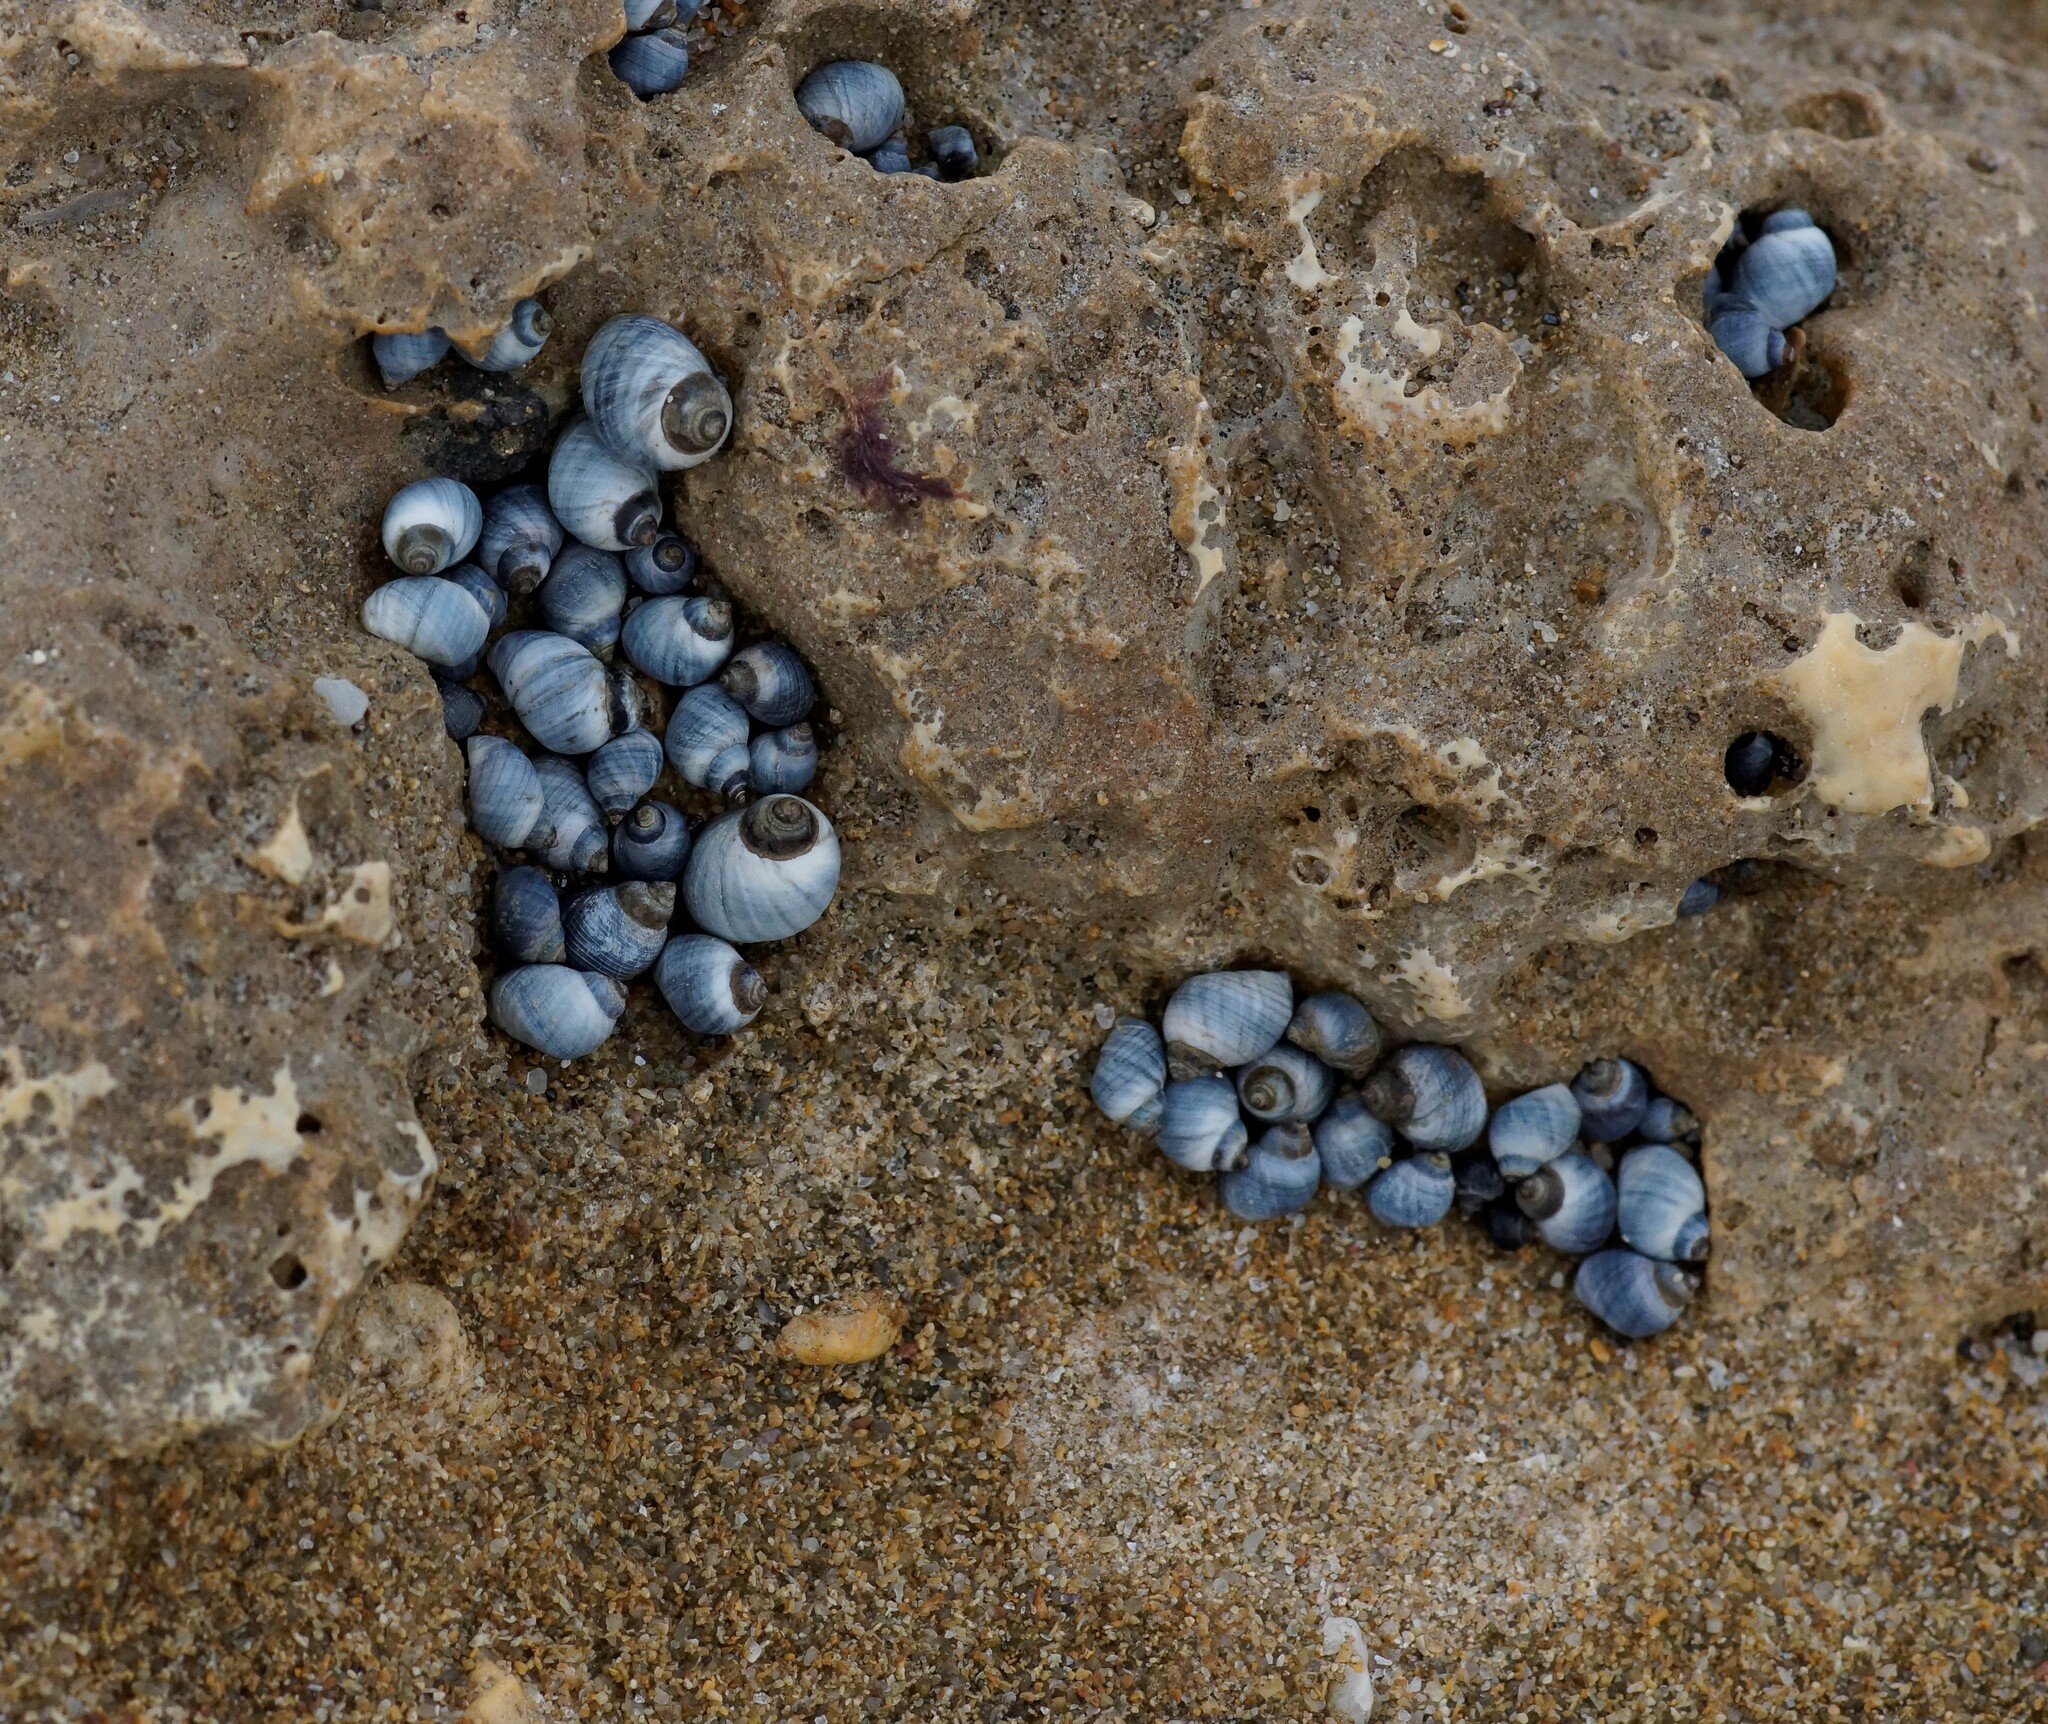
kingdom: Animalia
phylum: Mollusca
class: Gastropoda
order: Littorinimorpha
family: Littorinidae
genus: Austrolittorina
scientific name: Austrolittorina unifasciata
